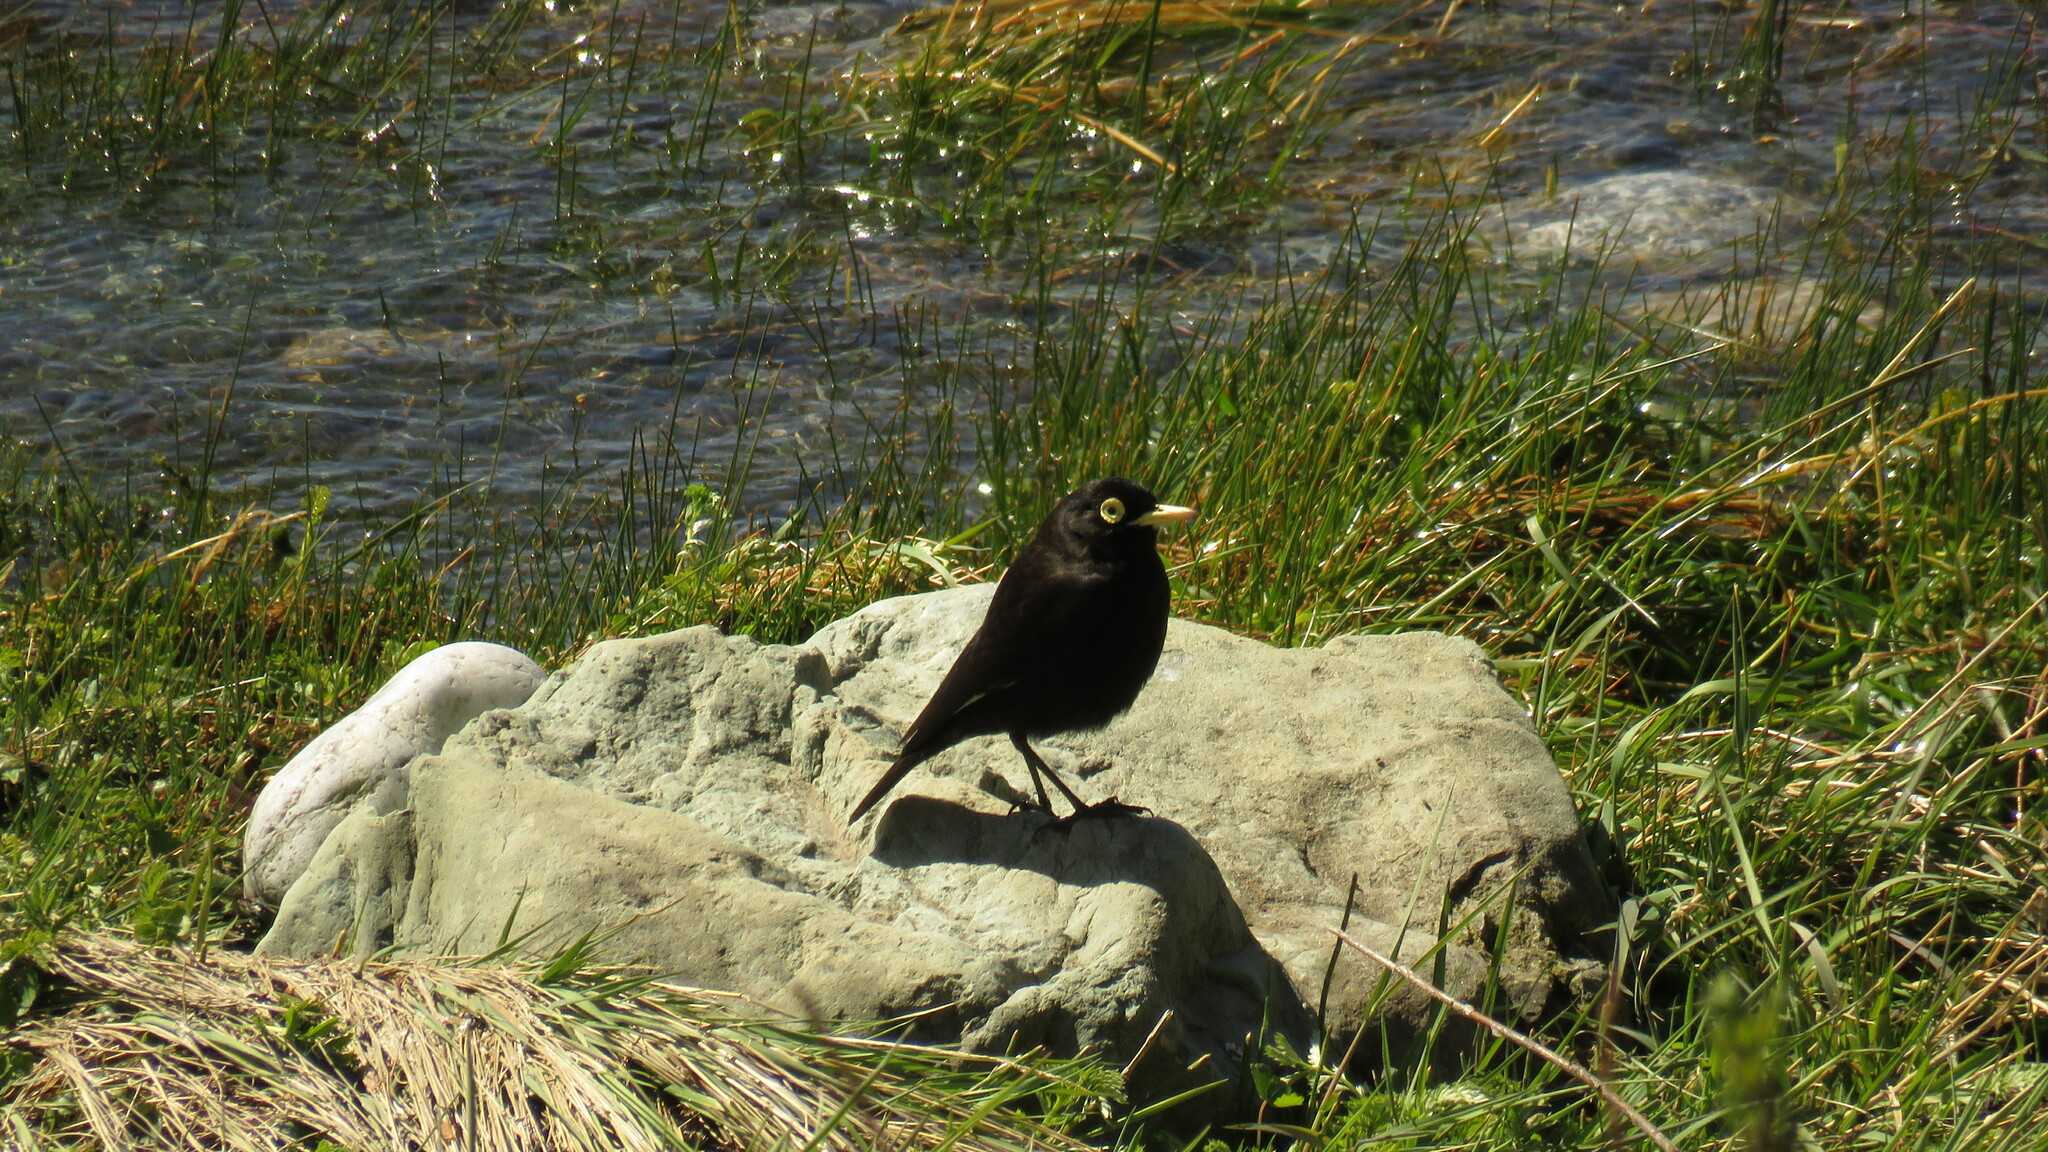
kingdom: Animalia
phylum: Chordata
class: Aves
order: Passeriformes
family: Tyrannidae
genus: Hymenops
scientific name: Hymenops perspicillatus
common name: Spectacled tyrant
